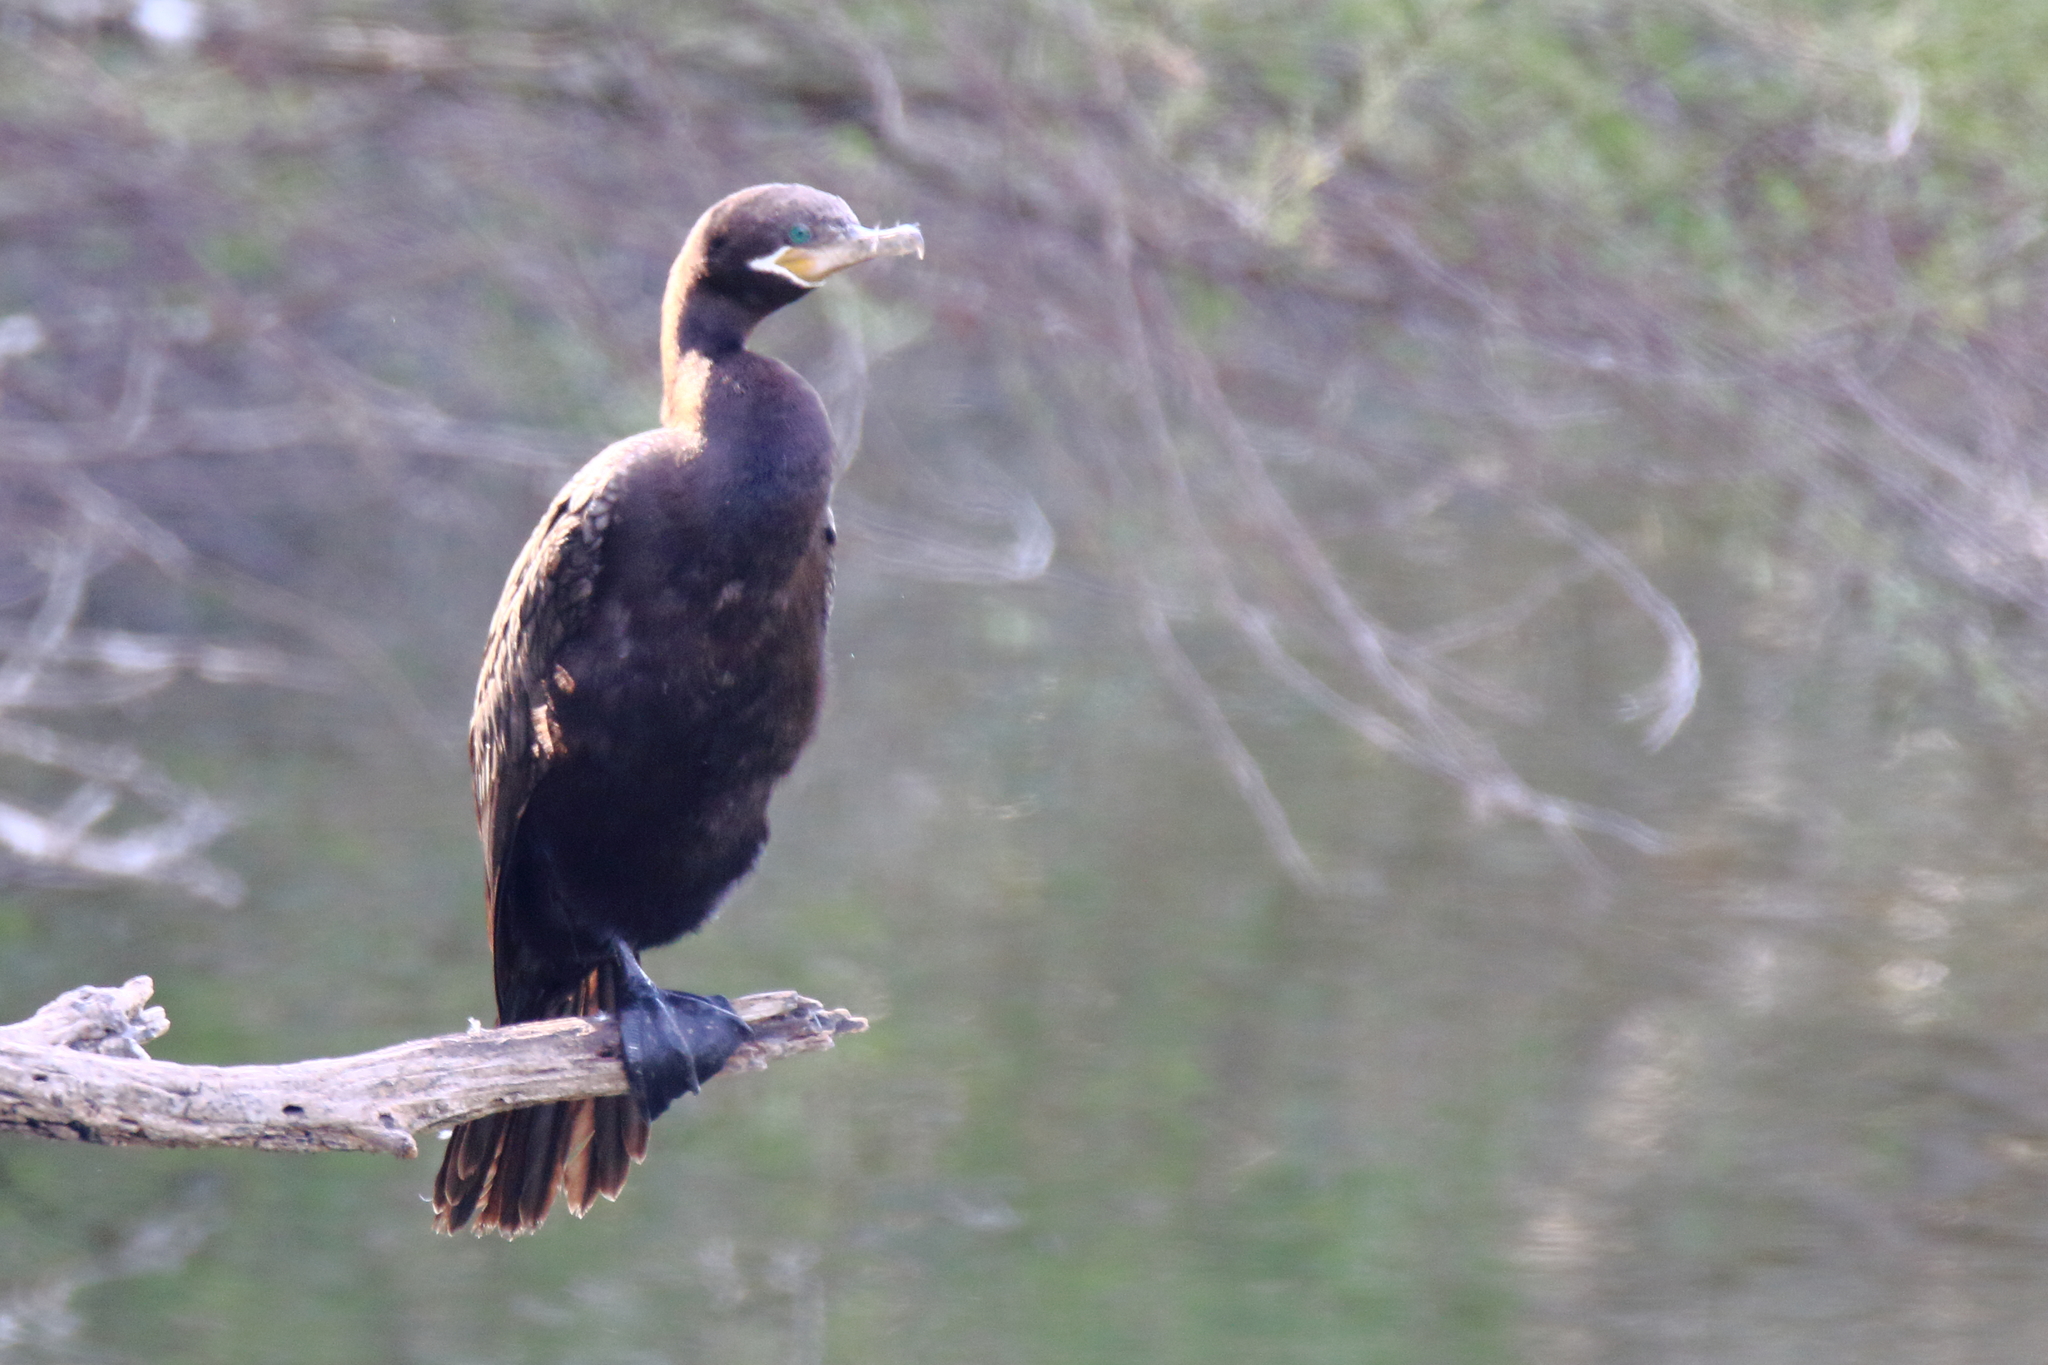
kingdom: Animalia
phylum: Chordata
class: Aves
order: Suliformes
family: Phalacrocoracidae
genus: Phalacrocorax
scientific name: Phalacrocorax brasilianus
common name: Neotropic cormorant
